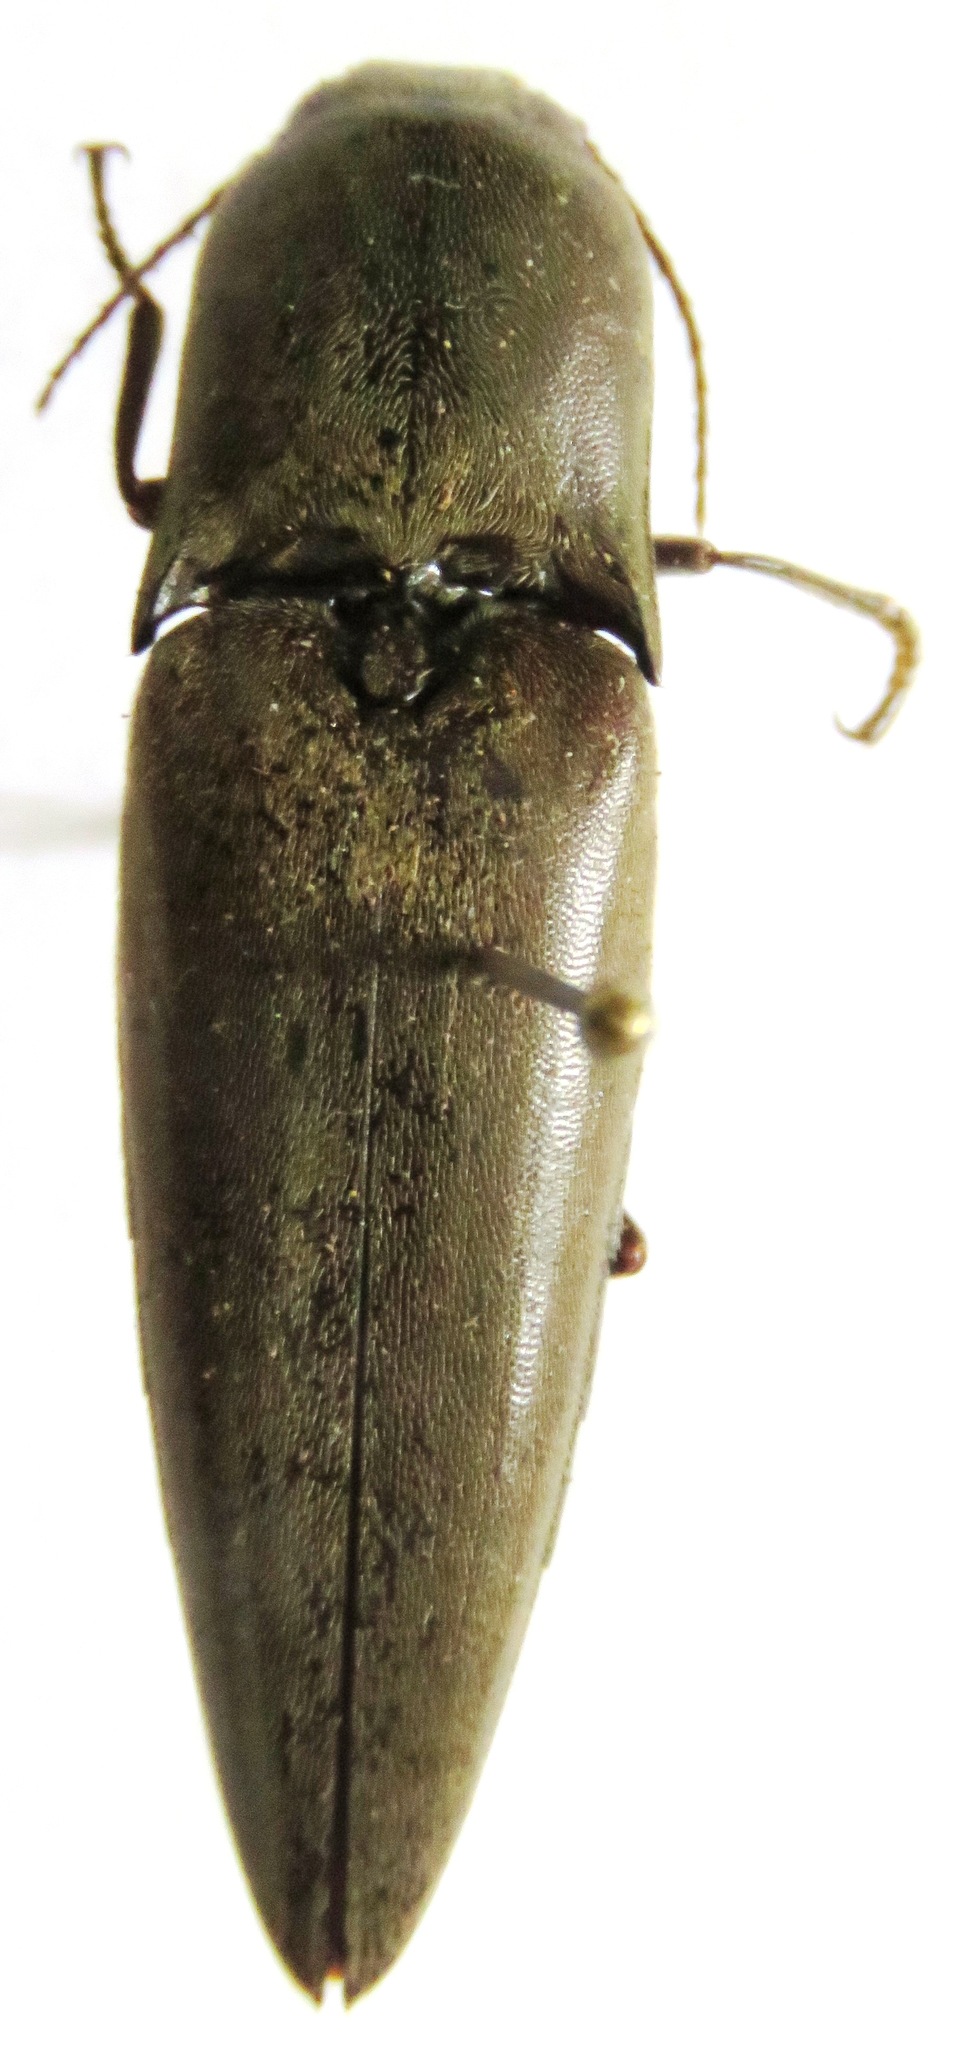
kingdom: Animalia
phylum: Arthropoda
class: Insecta
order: Coleoptera
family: Elateridae
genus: Orthostethus
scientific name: Orthostethus infuscatus
